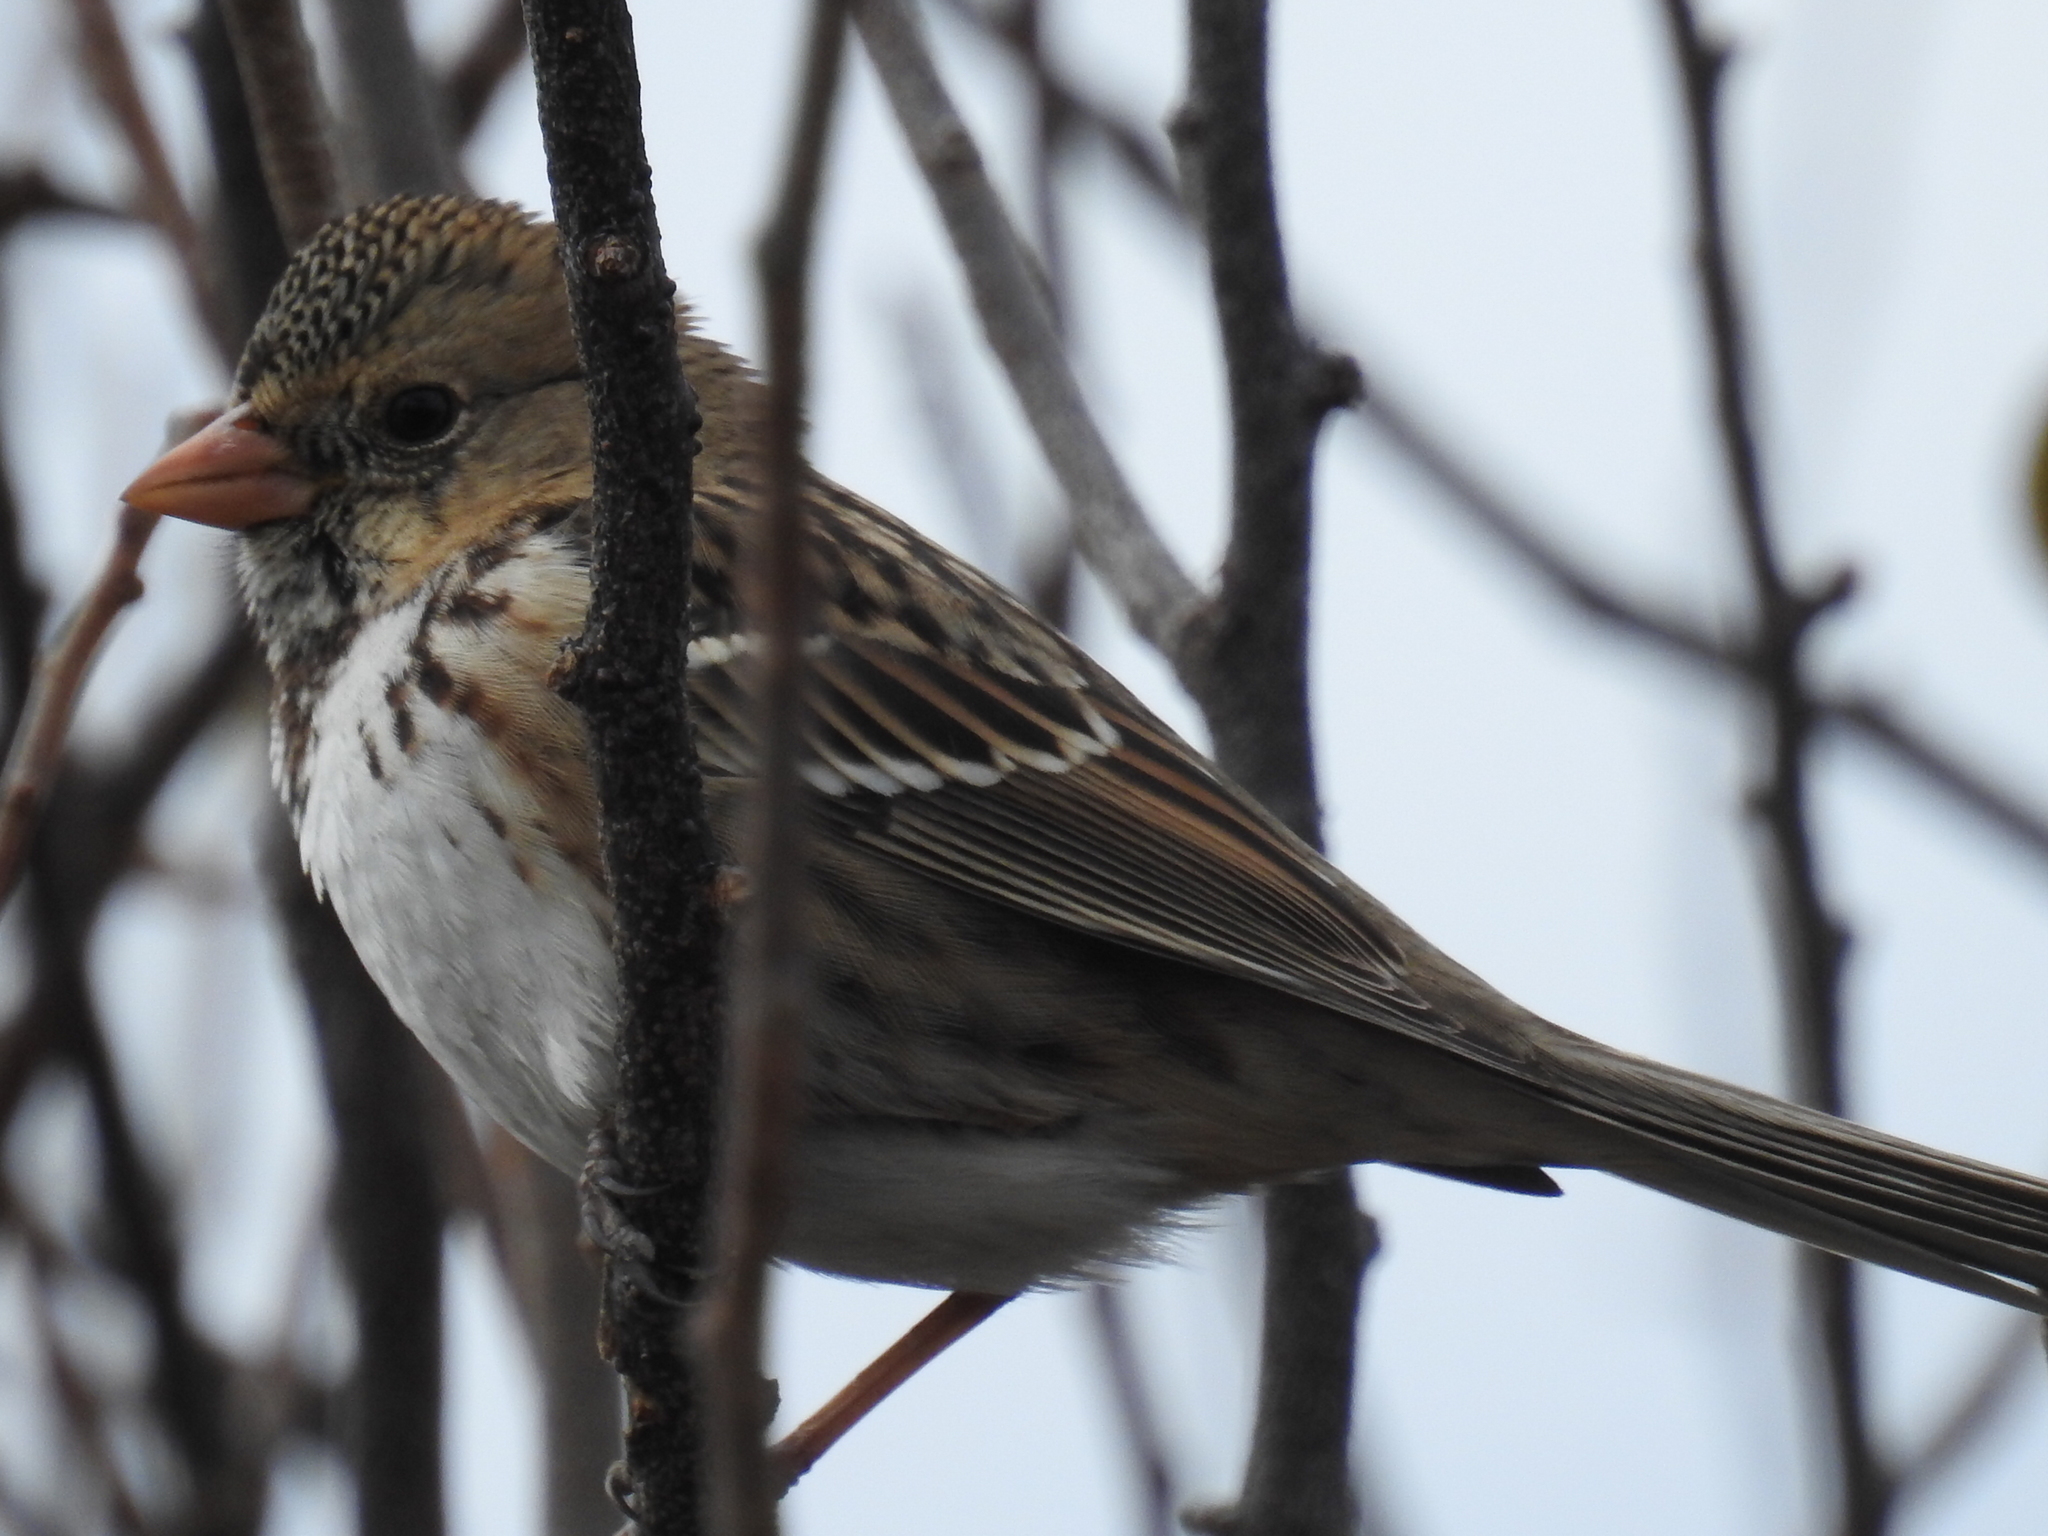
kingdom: Animalia
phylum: Chordata
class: Aves
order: Passeriformes
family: Passerellidae
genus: Zonotrichia
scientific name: Zonotrichia querula
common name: Harris's sparrow
